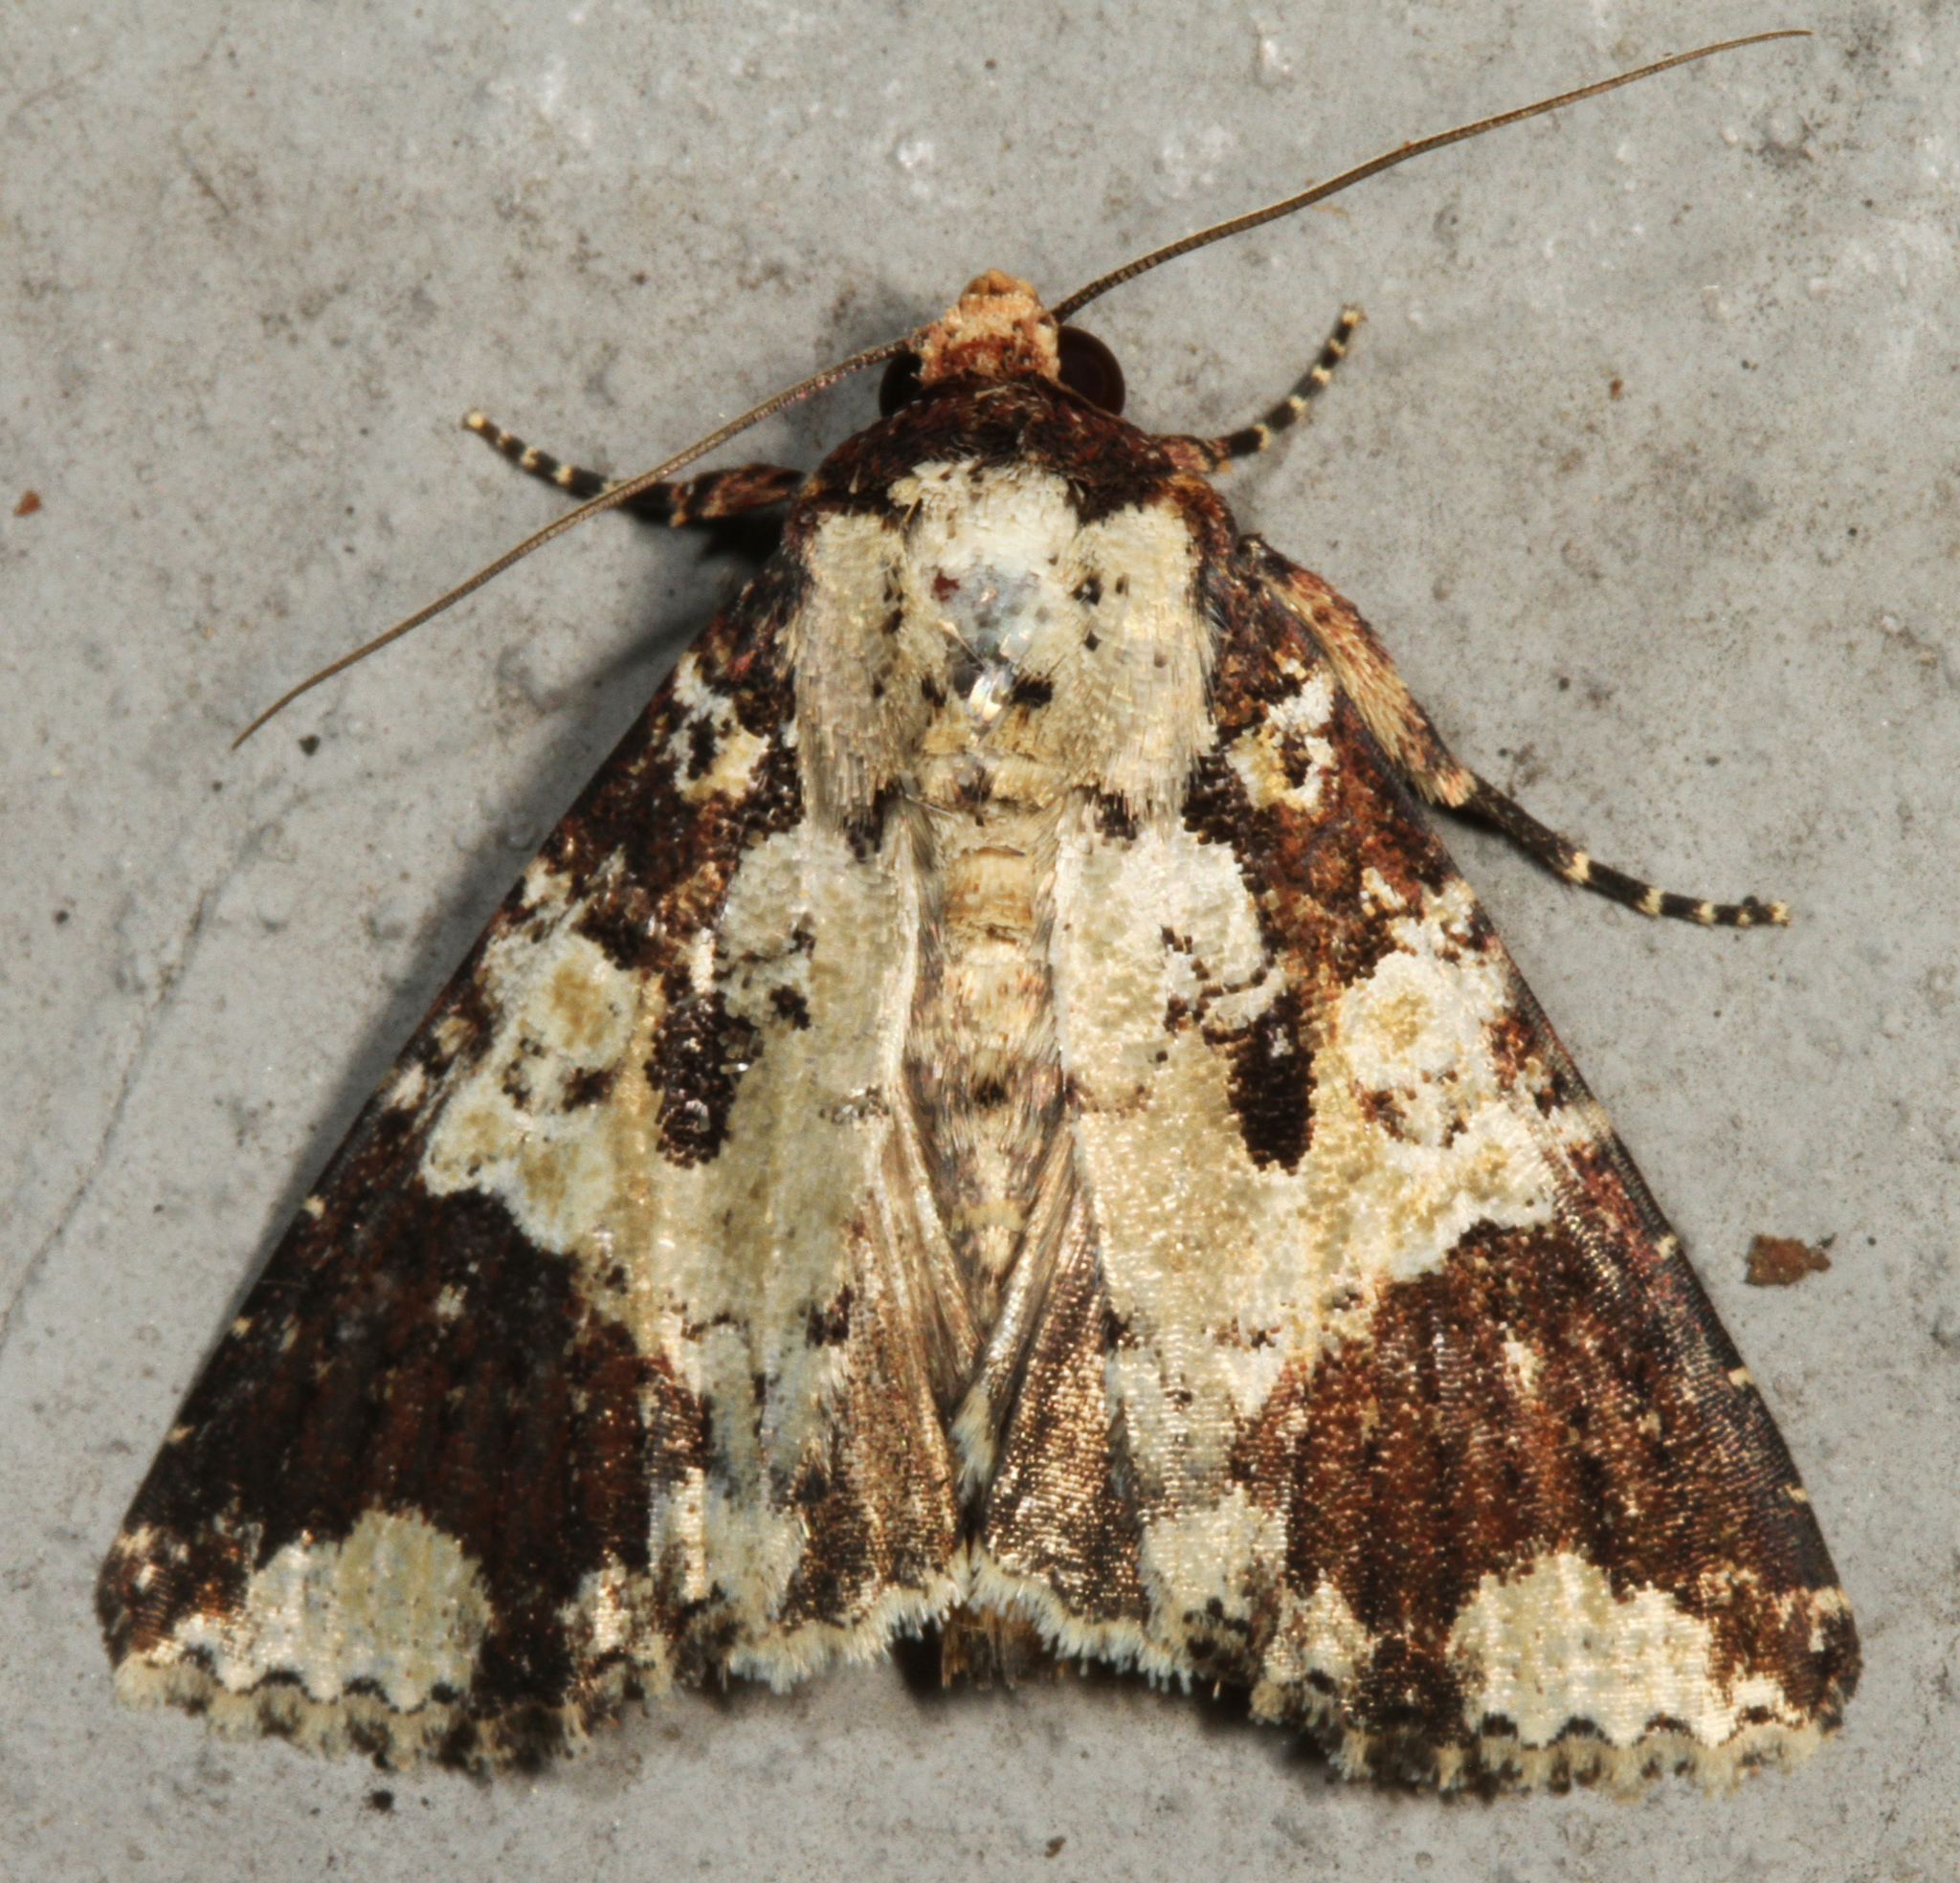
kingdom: Animalia
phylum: Arthropoda
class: Insecta
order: Lepidoptera
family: Noctuidae
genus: Condica
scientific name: Condica confederata
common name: The confederate
